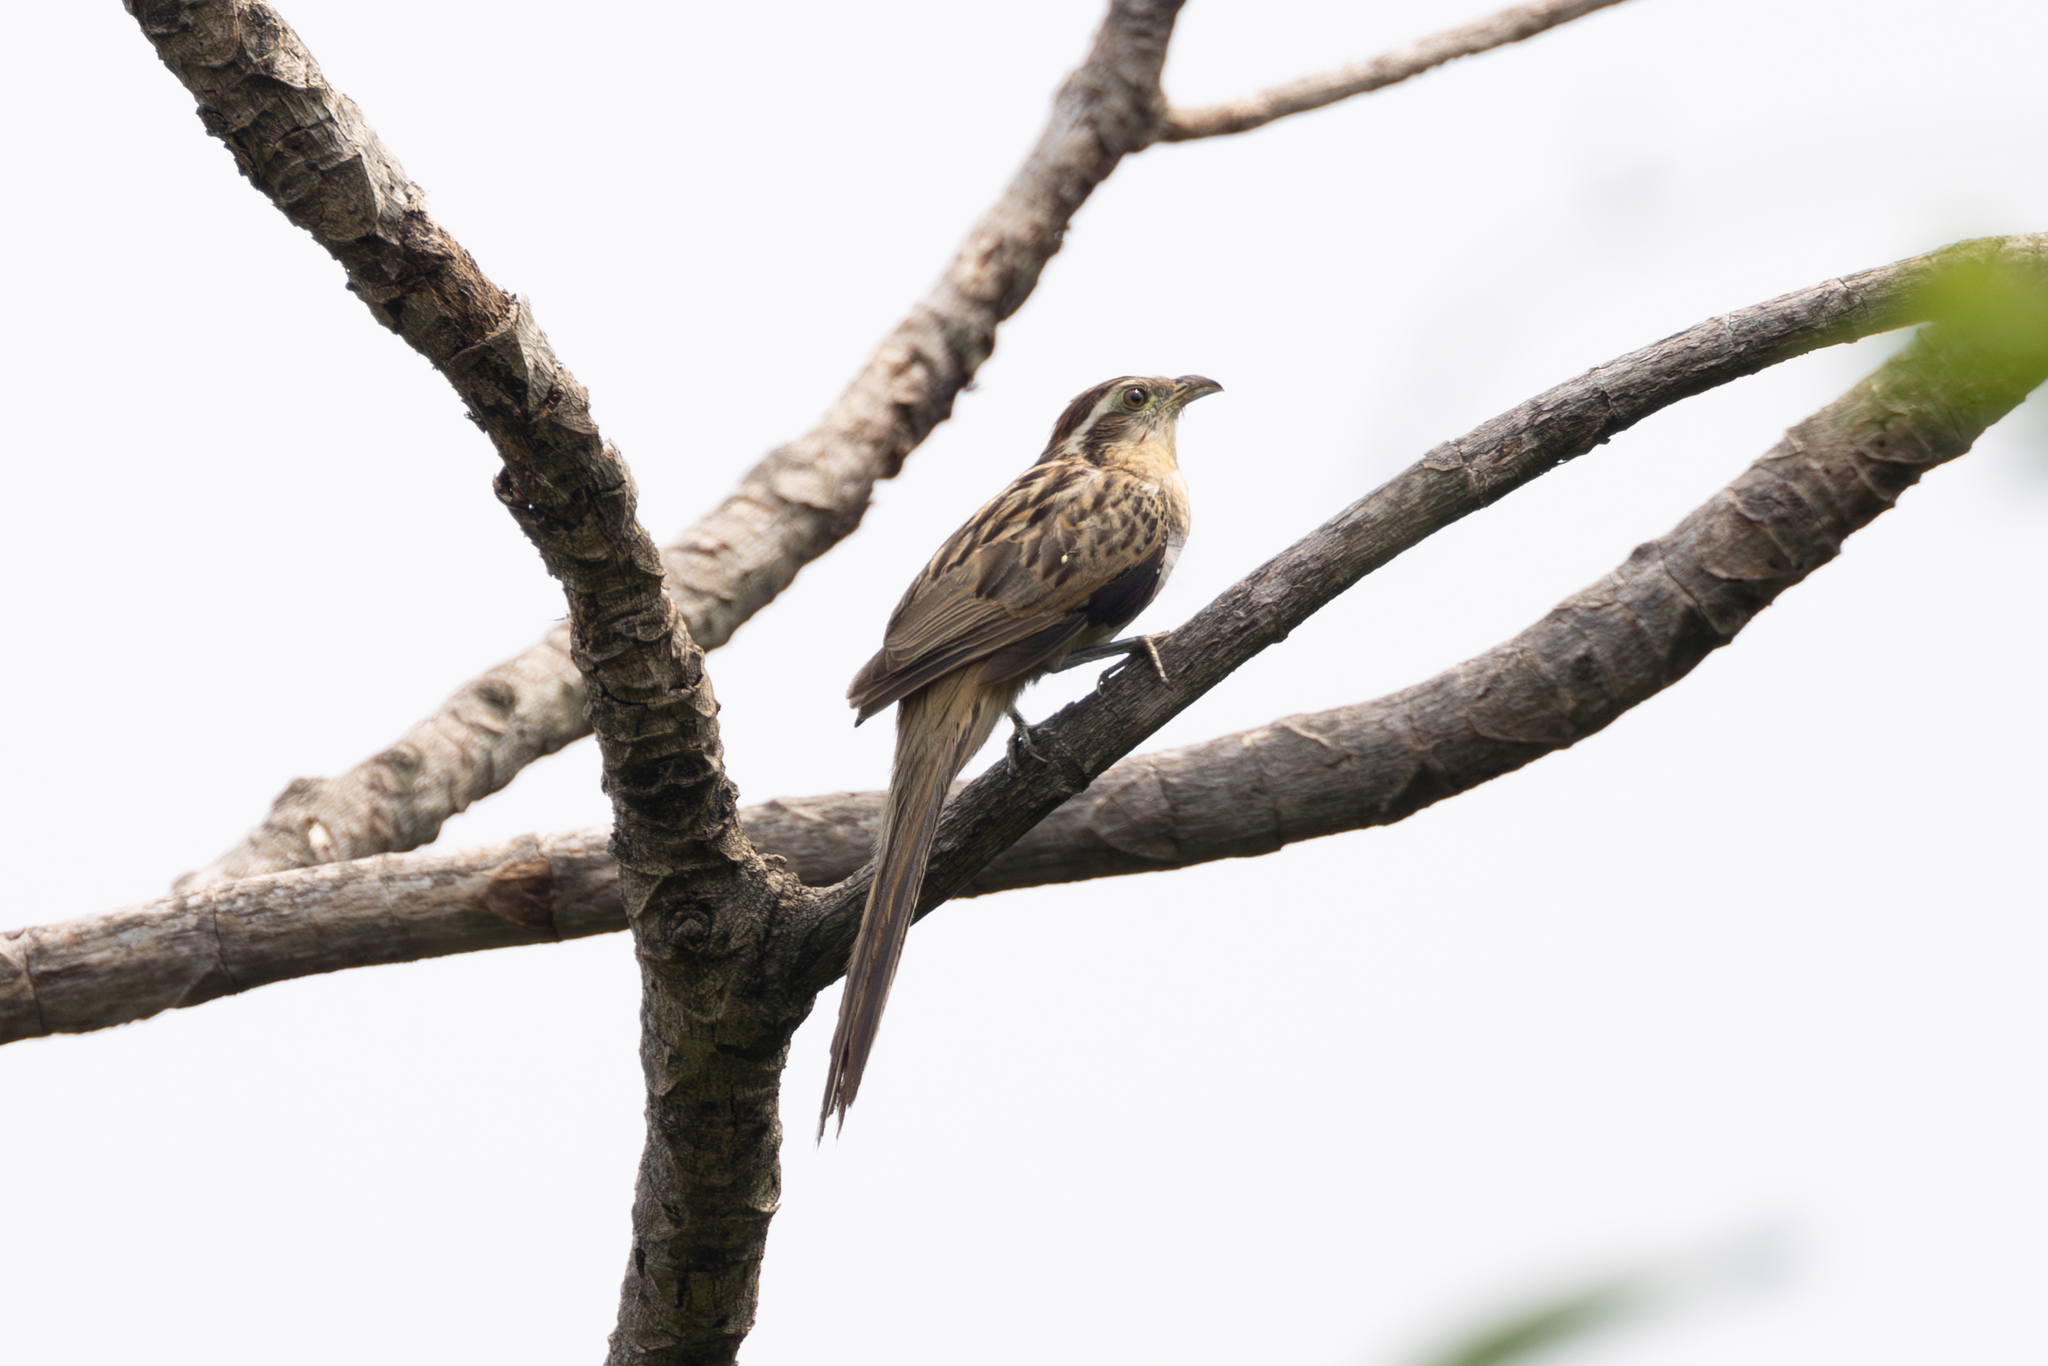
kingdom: Animalia
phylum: Chordata
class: Aves
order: Cuculiformes
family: Cuculidae
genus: Tapera
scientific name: Tapera naevia
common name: Striped cuckoo
